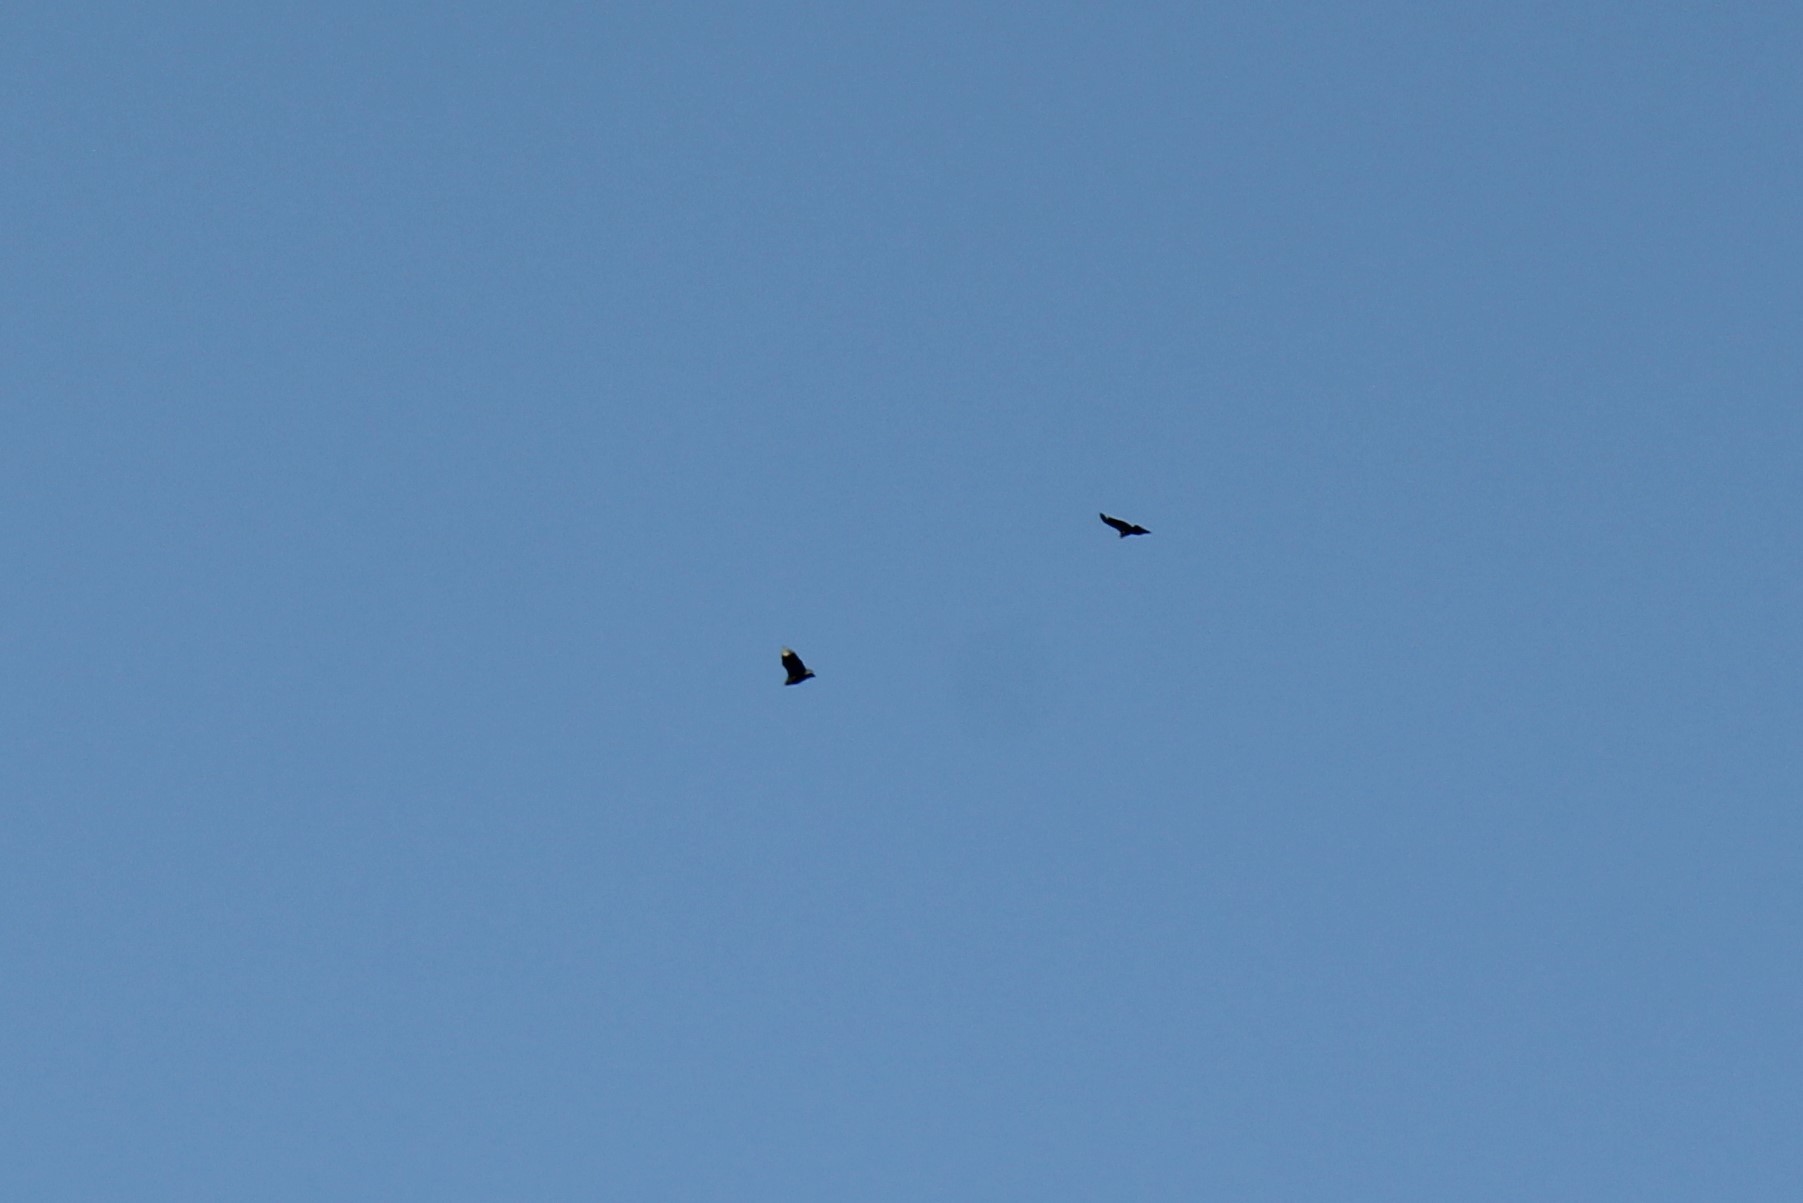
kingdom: Animalia
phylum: Chordata
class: Aves
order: Accipitriformes
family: Cathartidae
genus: Coragyps
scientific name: Coragyps atratus
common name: Black vulture
